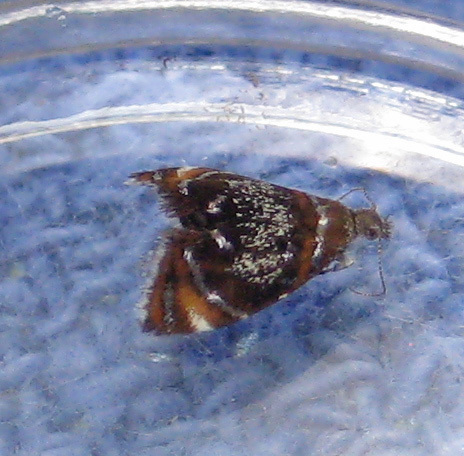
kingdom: Animalia
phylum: Arthropoda
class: Insecta
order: Lepidoptera
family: Choreutidae
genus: Prochoreutis
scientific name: Prochoreutis inflatella
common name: Skullcap skeletonizer moth
